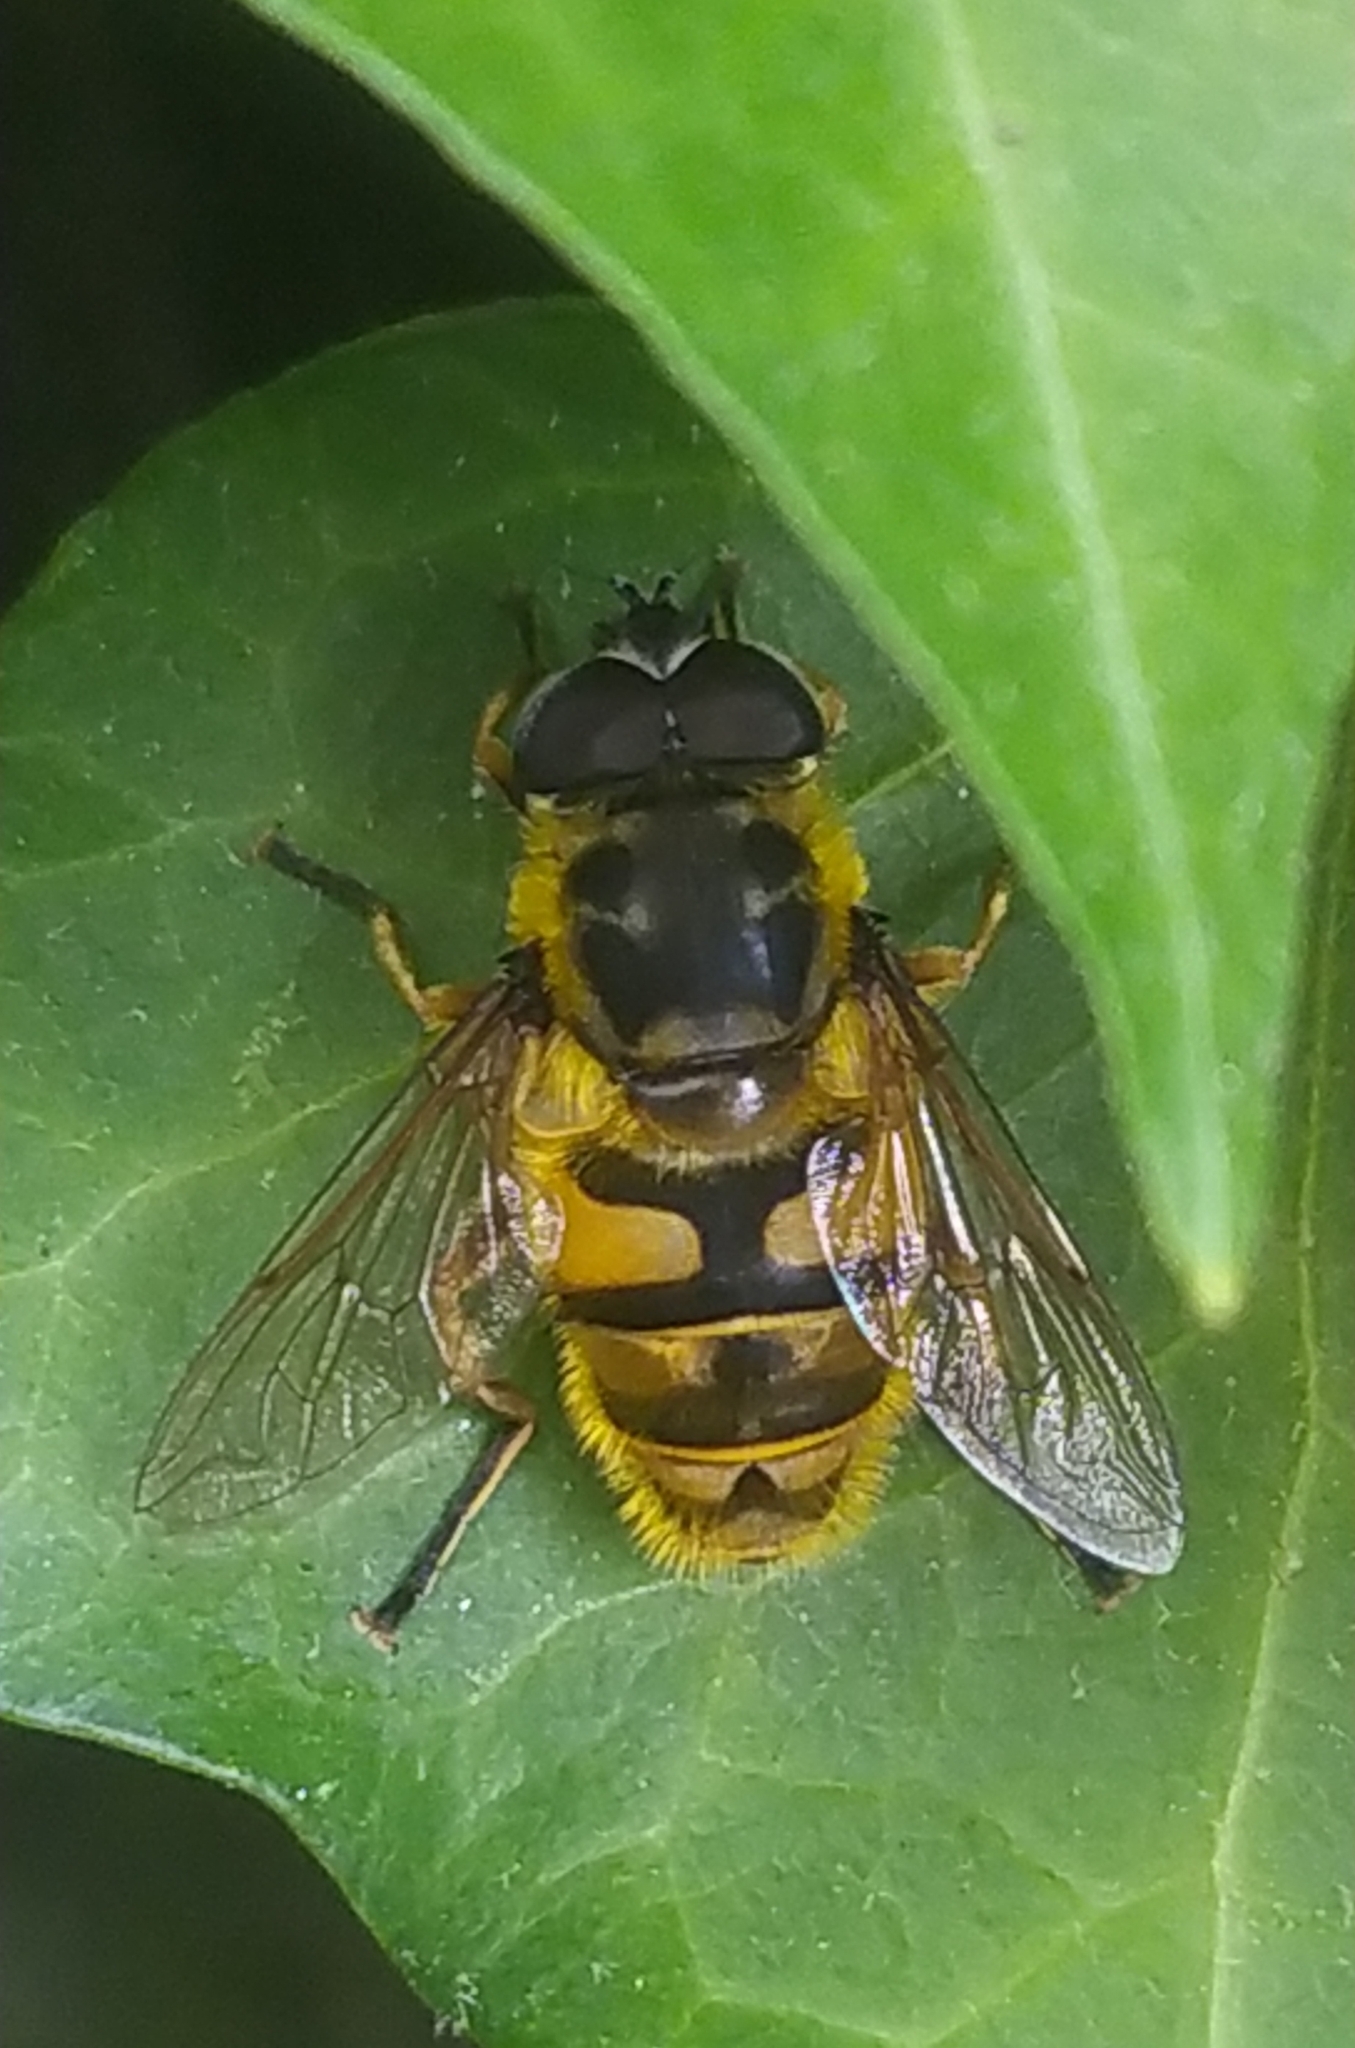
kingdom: Animalia
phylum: Arthropoda
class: Insecta
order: Diptera
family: Syrphidae
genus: Myathropa
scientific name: Myathropa florea
